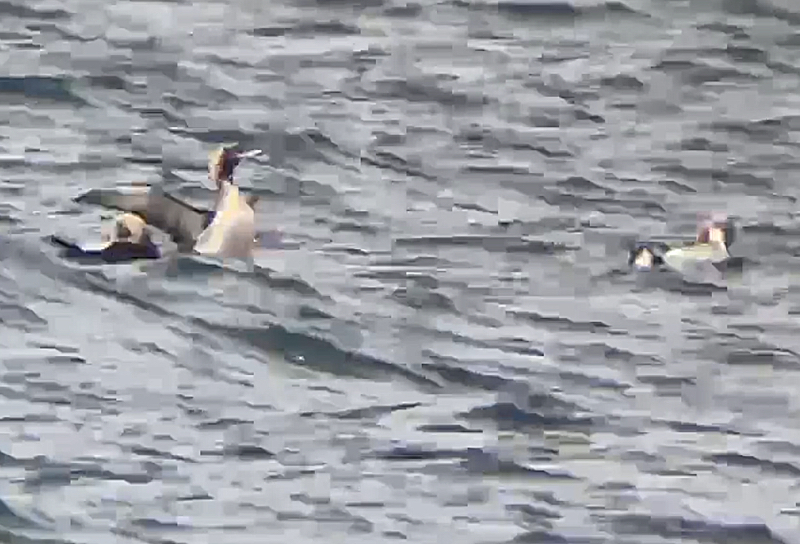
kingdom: Animalia
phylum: Chordata
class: Aves
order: Gaviiformes
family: Gaviidae
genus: Gavia
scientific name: Gavia arctica
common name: Black-throated loon
